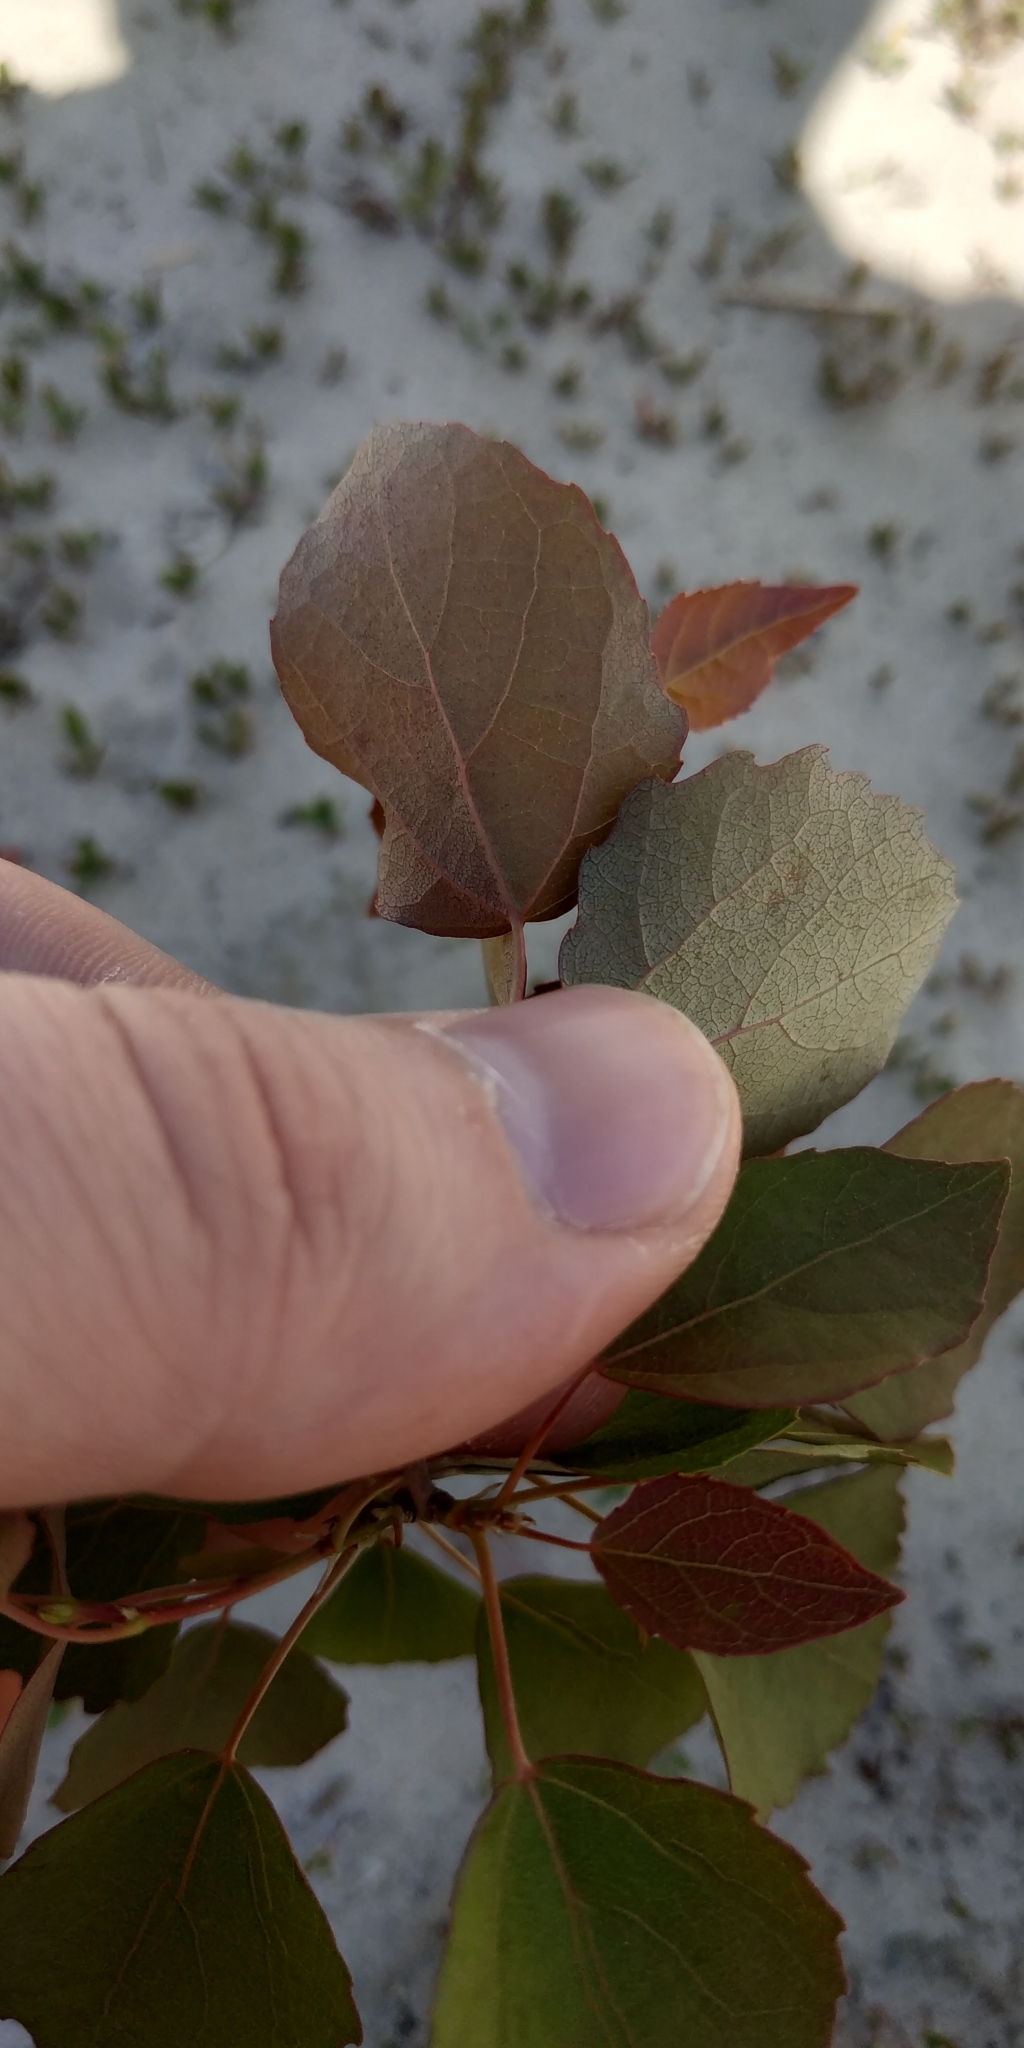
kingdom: Plantae
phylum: Tracheophyta
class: Magnoliopsida
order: Malpighiales
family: Salicaceae
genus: Populus
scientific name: Populus tremula
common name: European aspen
